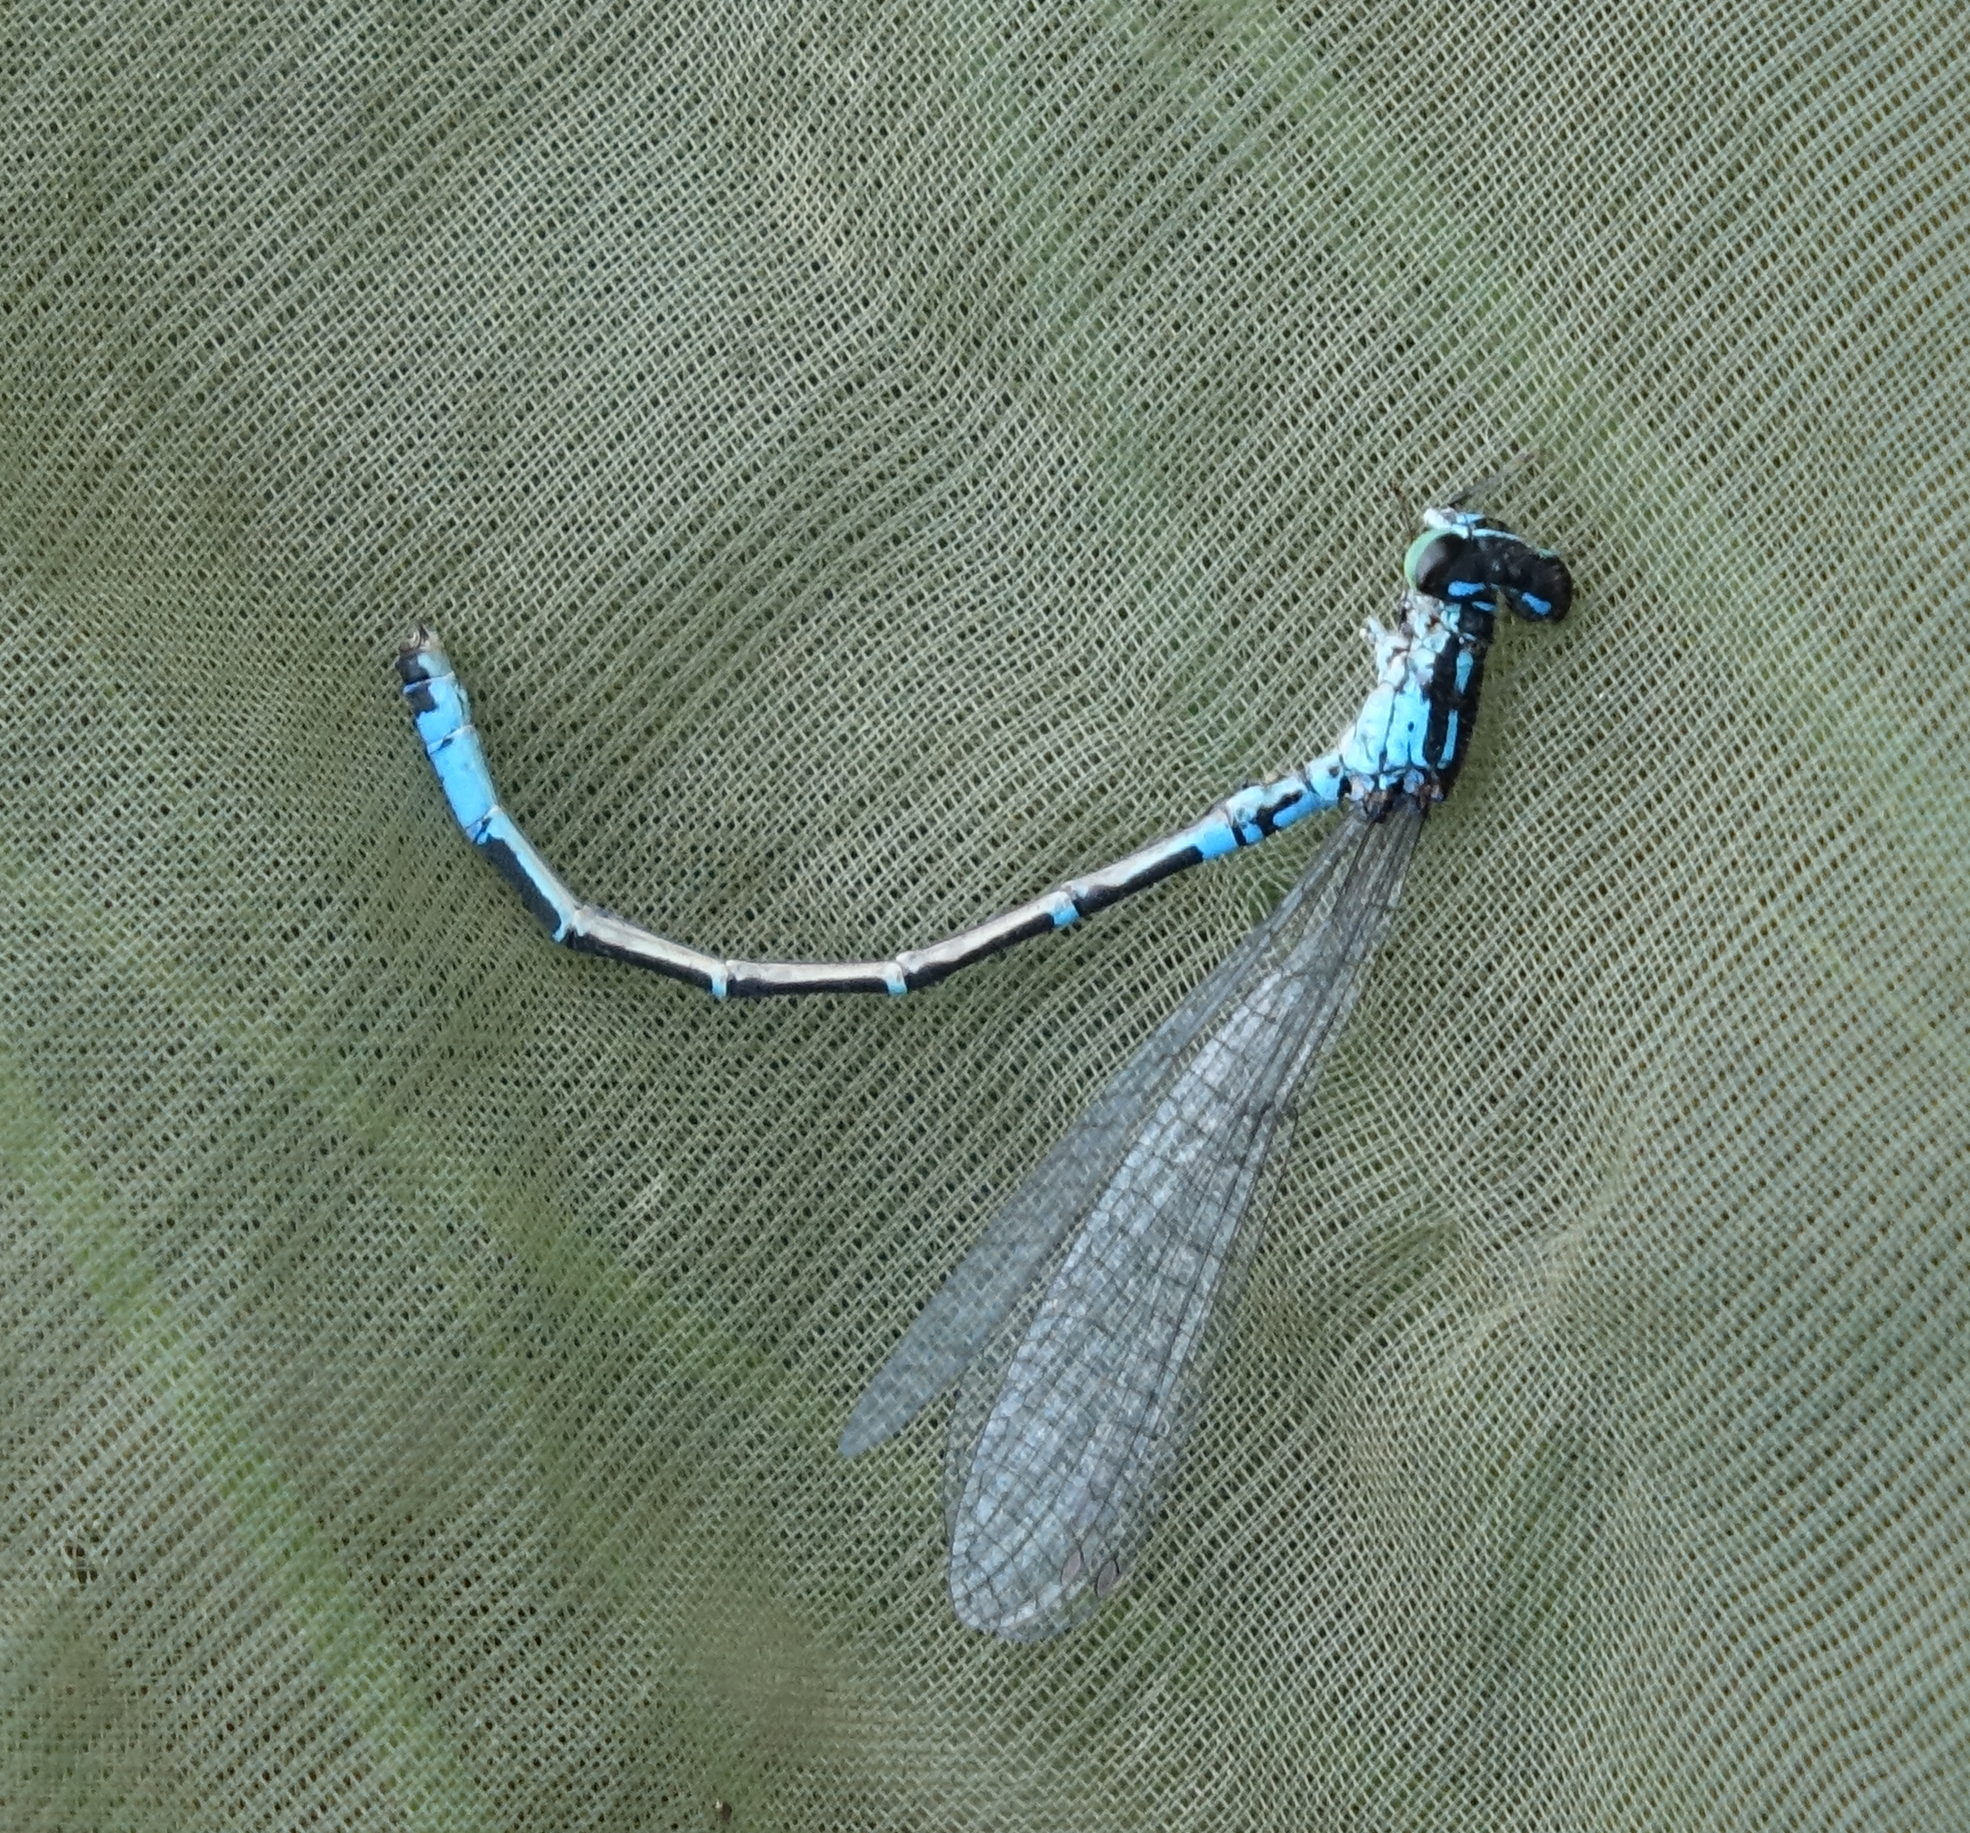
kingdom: Animalia
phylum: Arthropoda
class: Insecta
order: Odonata
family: Coenagrionidae
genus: Coenagrion
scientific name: Coenagrion glaciale
